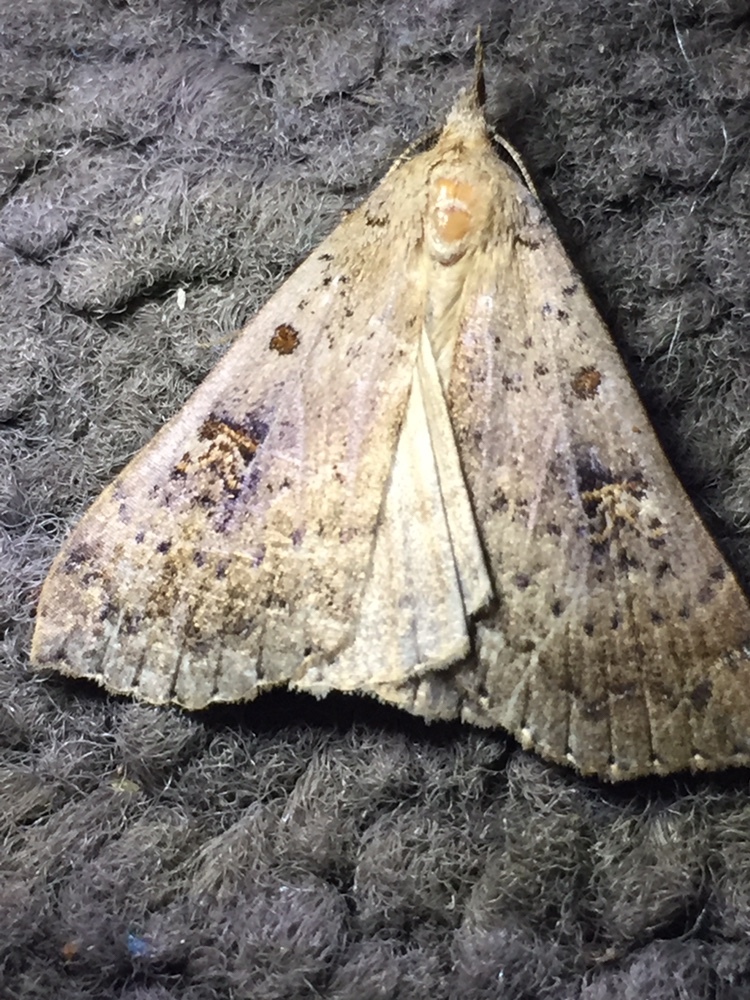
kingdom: Animalia
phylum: Arthropoda
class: Insecta
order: Lepidoptera
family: Erebidae
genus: Rhapsa
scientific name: Rhapsa scotosialis
